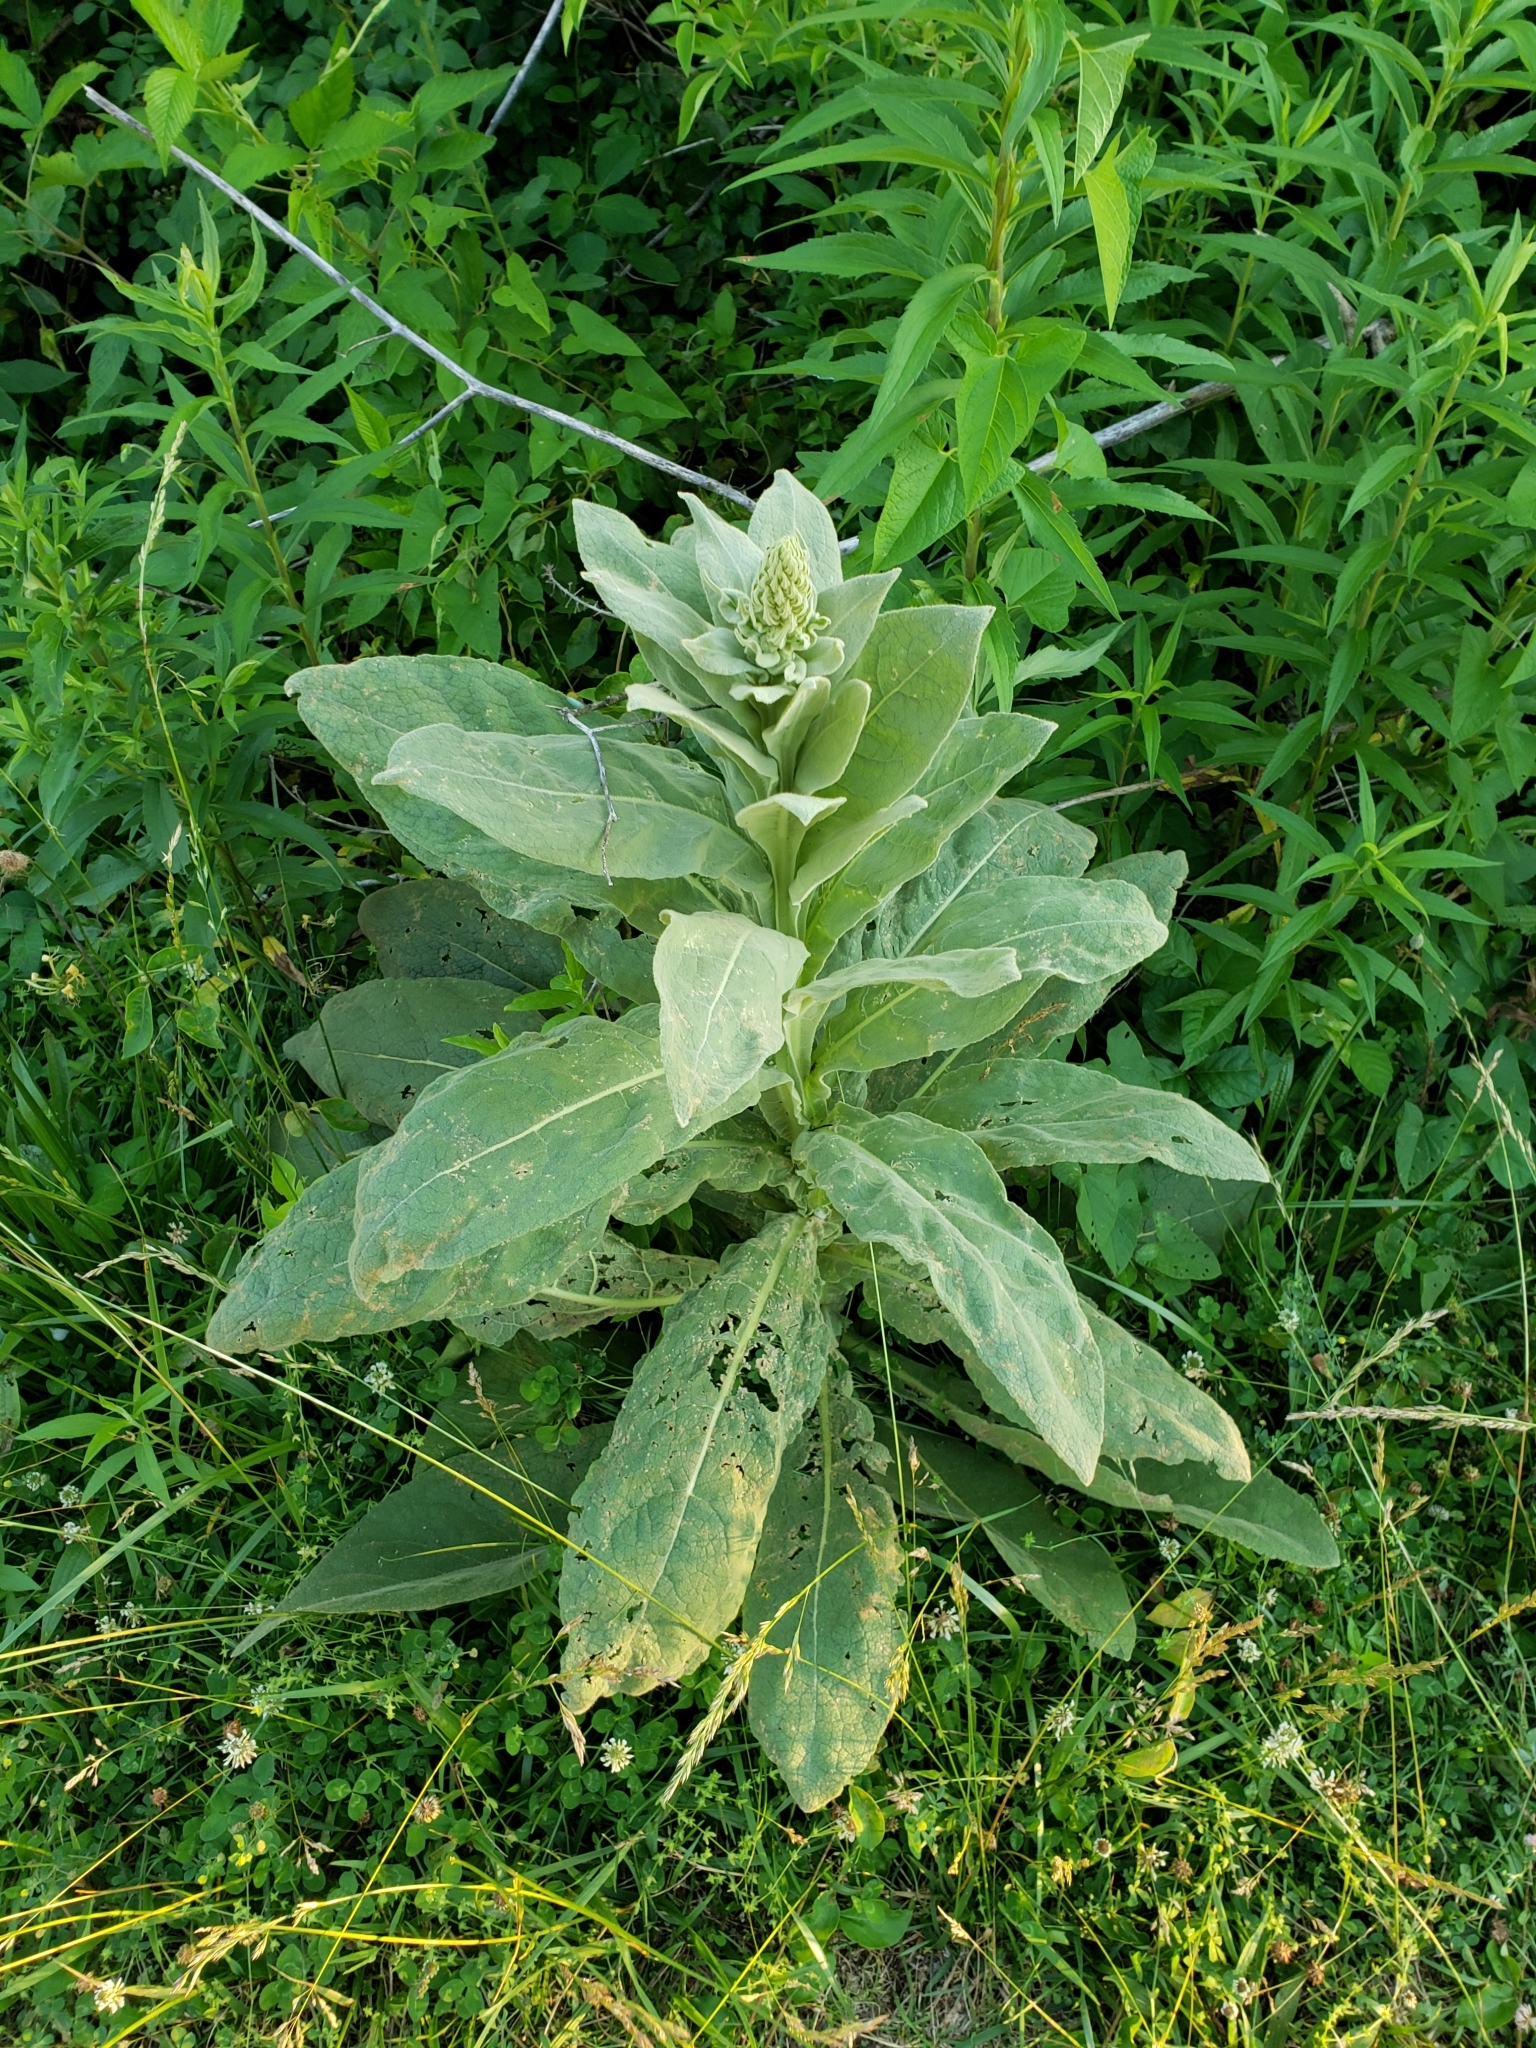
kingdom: Plantae
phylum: Tracheophyta
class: Magnoliopsida
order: Lamiales
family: Scrophulariaceae
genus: Verbascum
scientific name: Verbascum thapsus
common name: Common mullein
